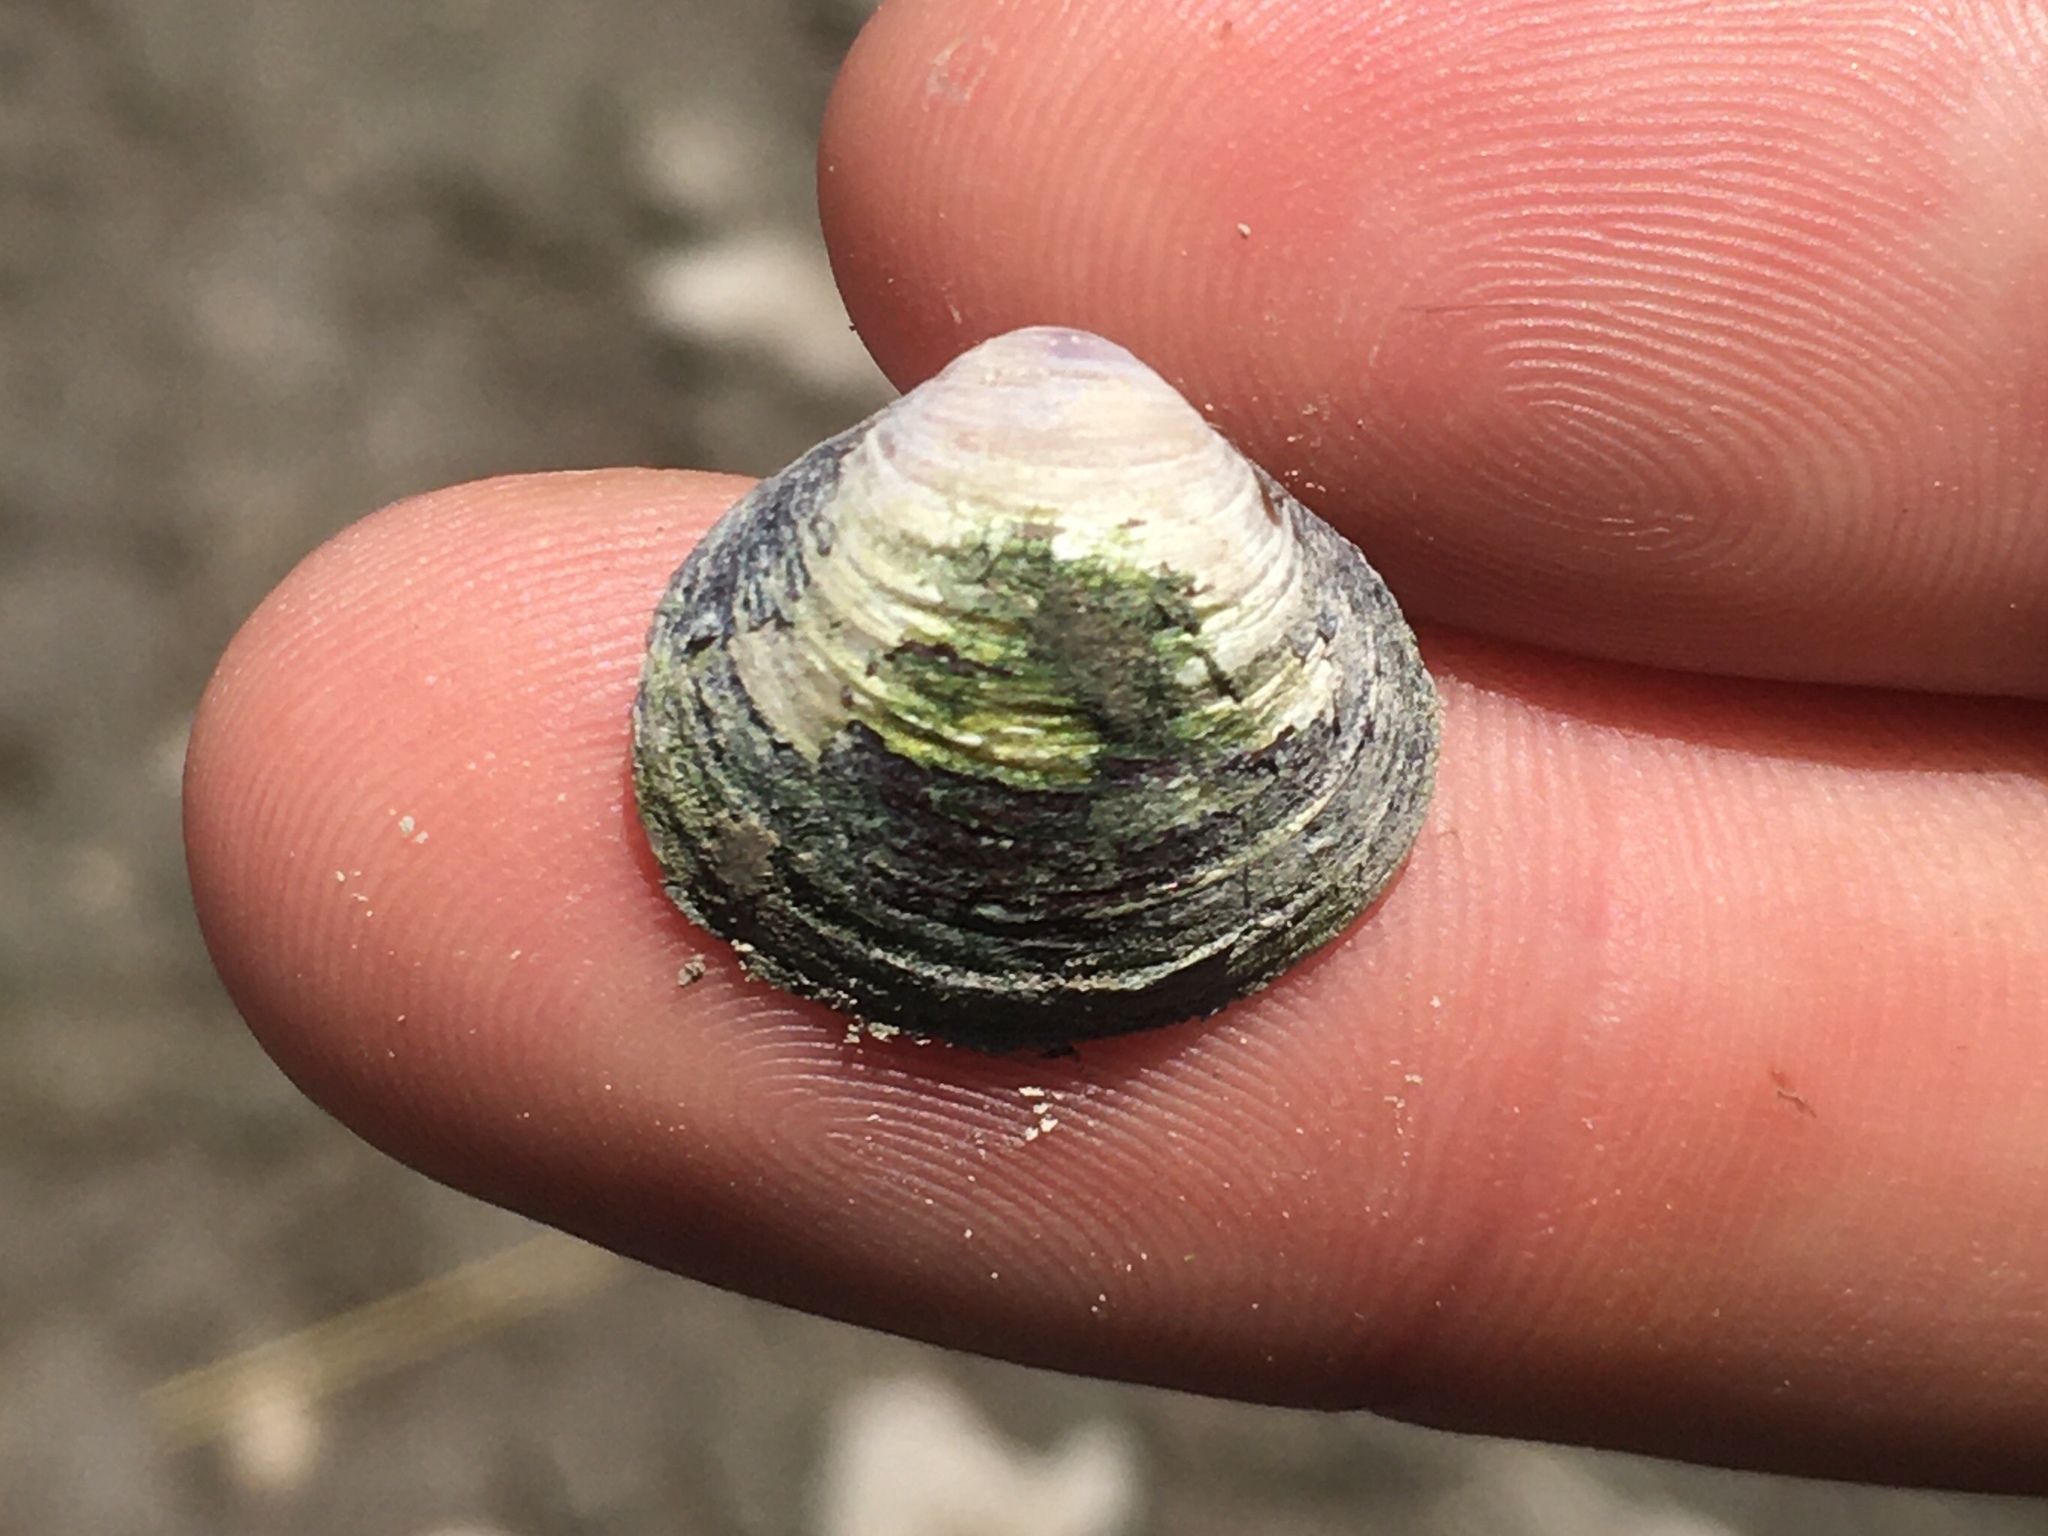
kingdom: Animalia
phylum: Mollusca
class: Bivalvia
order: Venerida
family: Cyrenidae
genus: Corbicula
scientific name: Corbicula fluminea
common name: Asian clam
